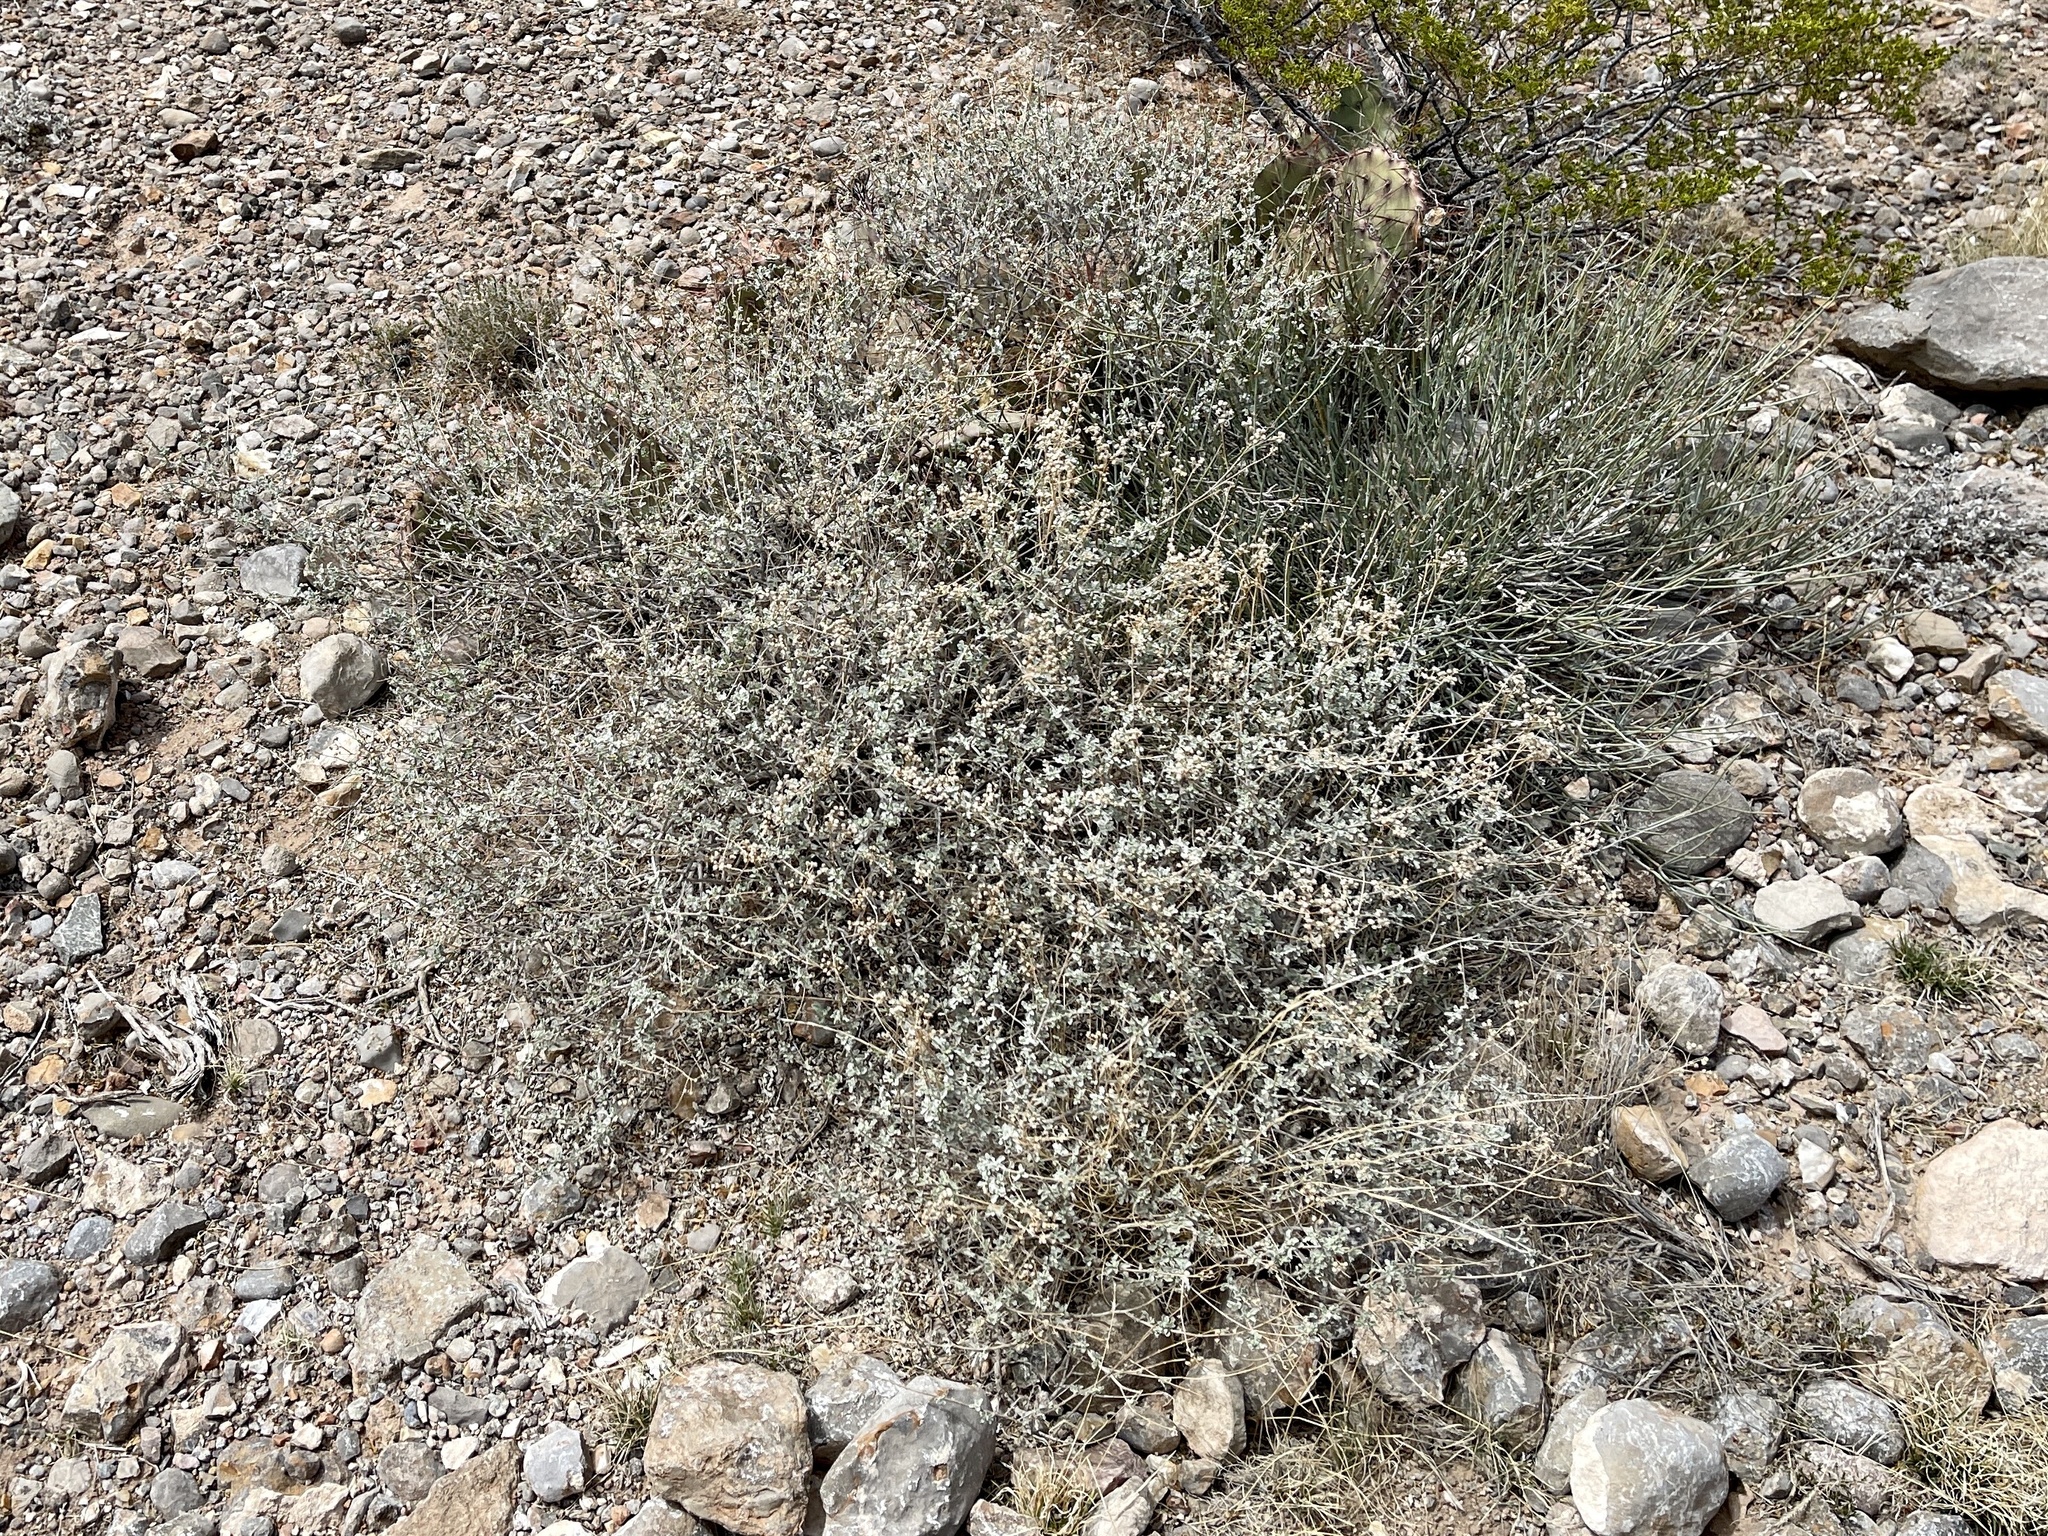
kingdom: Plantae
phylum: Tracheophyta
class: Magnoliopsida
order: Asterales
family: Asteraceae
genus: Parthenium
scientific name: Parthenium incanum
